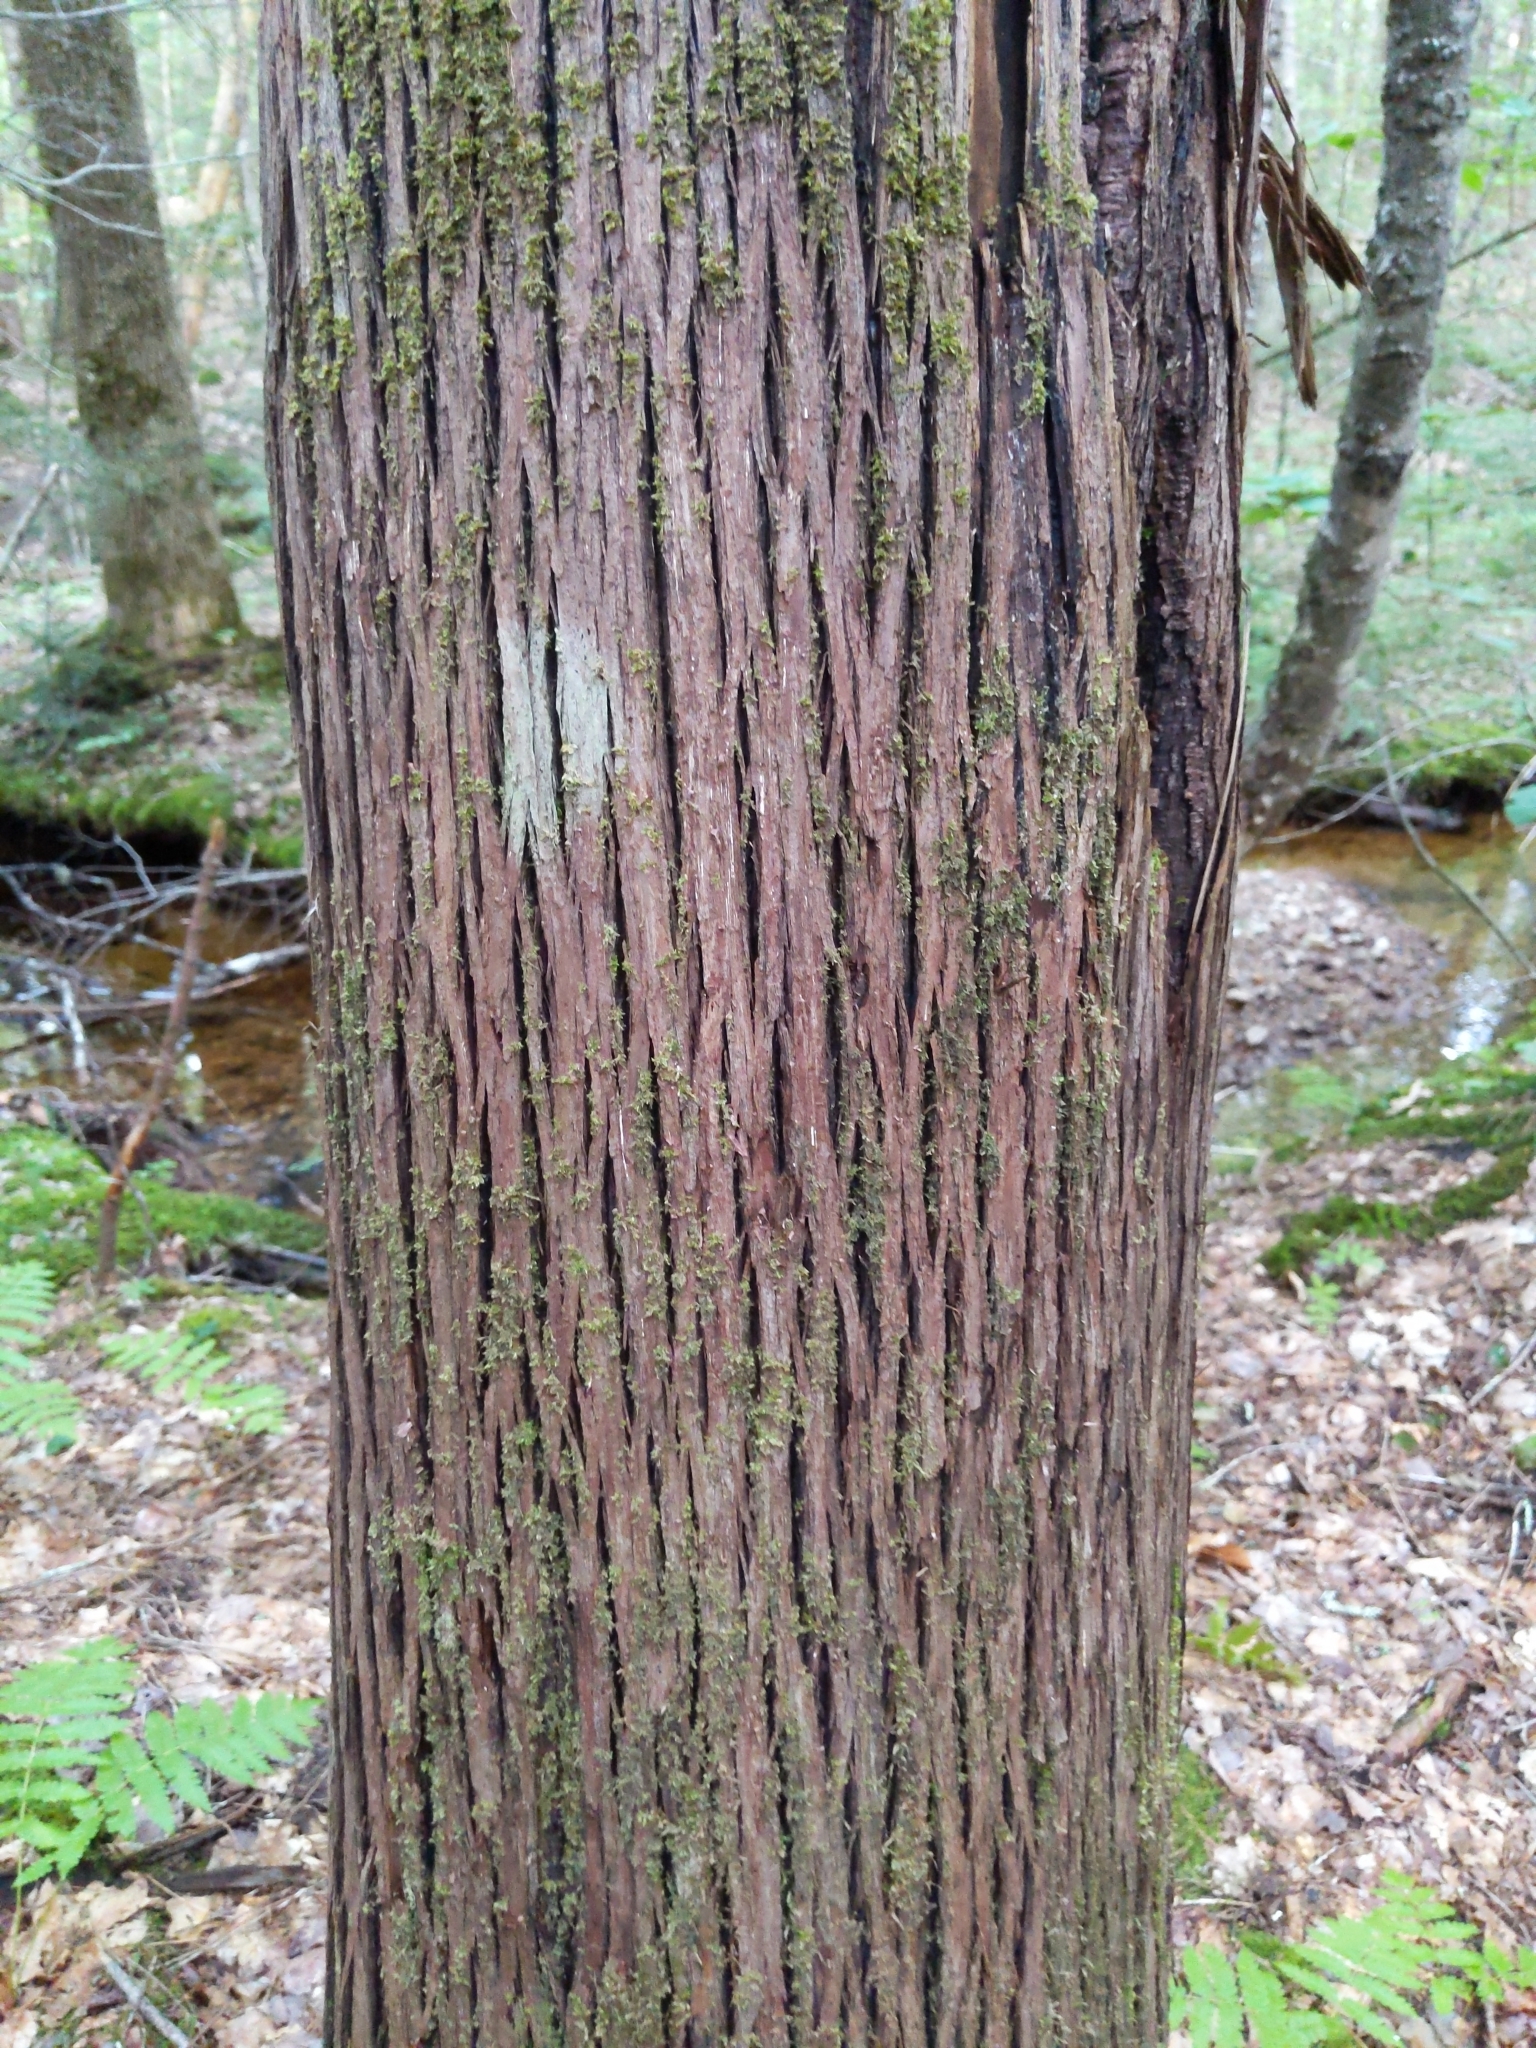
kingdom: Plantae
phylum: Tracheophyta
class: Pinopsida
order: Pinales
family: Cupressaceae
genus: Thuja
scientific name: Thuja occidentalis
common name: Northern white-cedar
